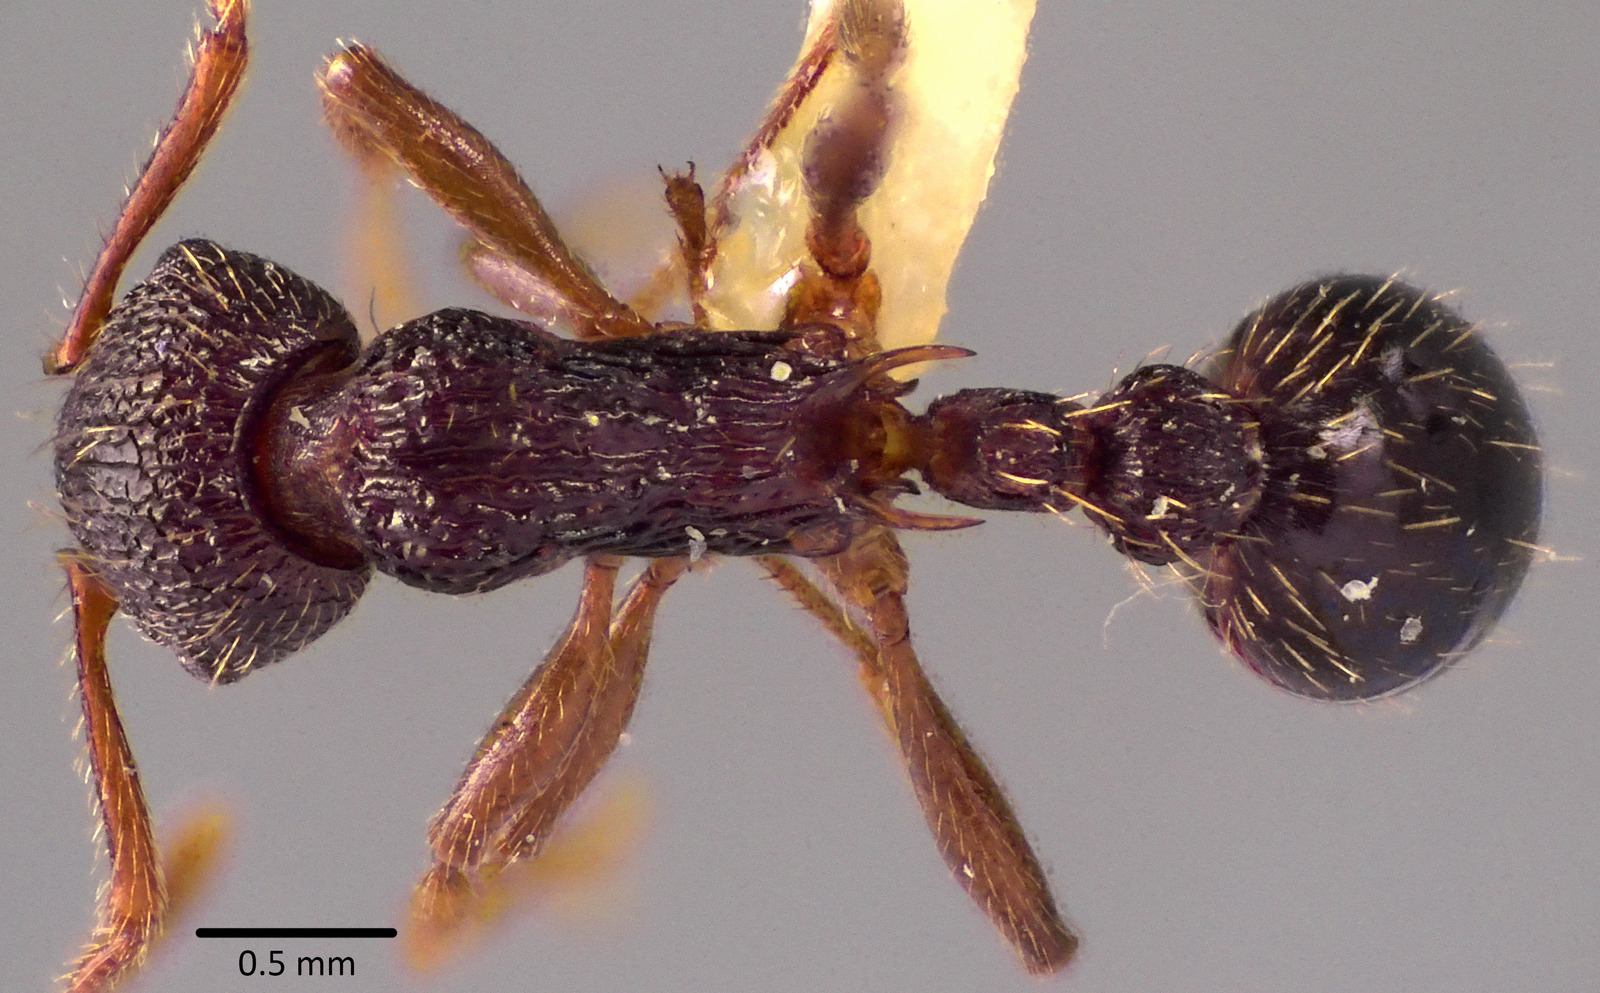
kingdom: Animalia
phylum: Arthropoda
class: Insecta
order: Hymenoptera
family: Formicidae
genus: Myrmica
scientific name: Myrmica spatulata
